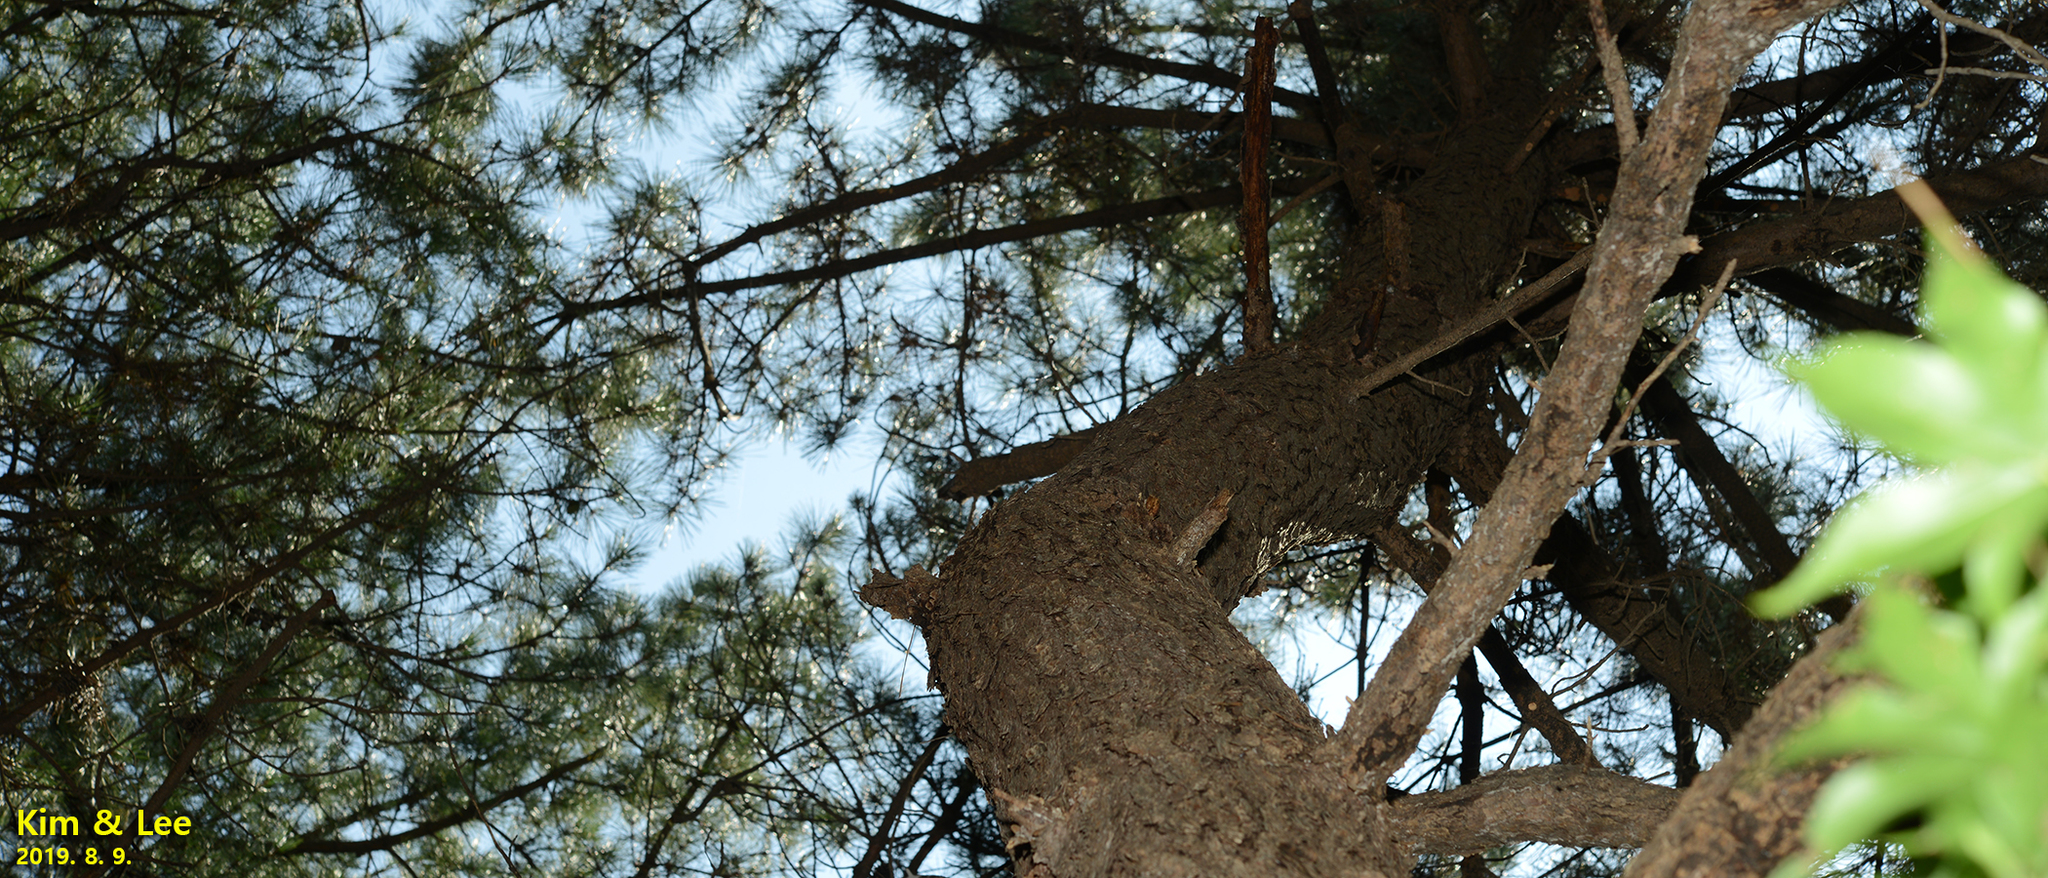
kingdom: Plantae
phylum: Tracheophyta
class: Pinopsida
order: Pinales
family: Pinaceae
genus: Pinus
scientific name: Pinus rigida
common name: Pitch pine
